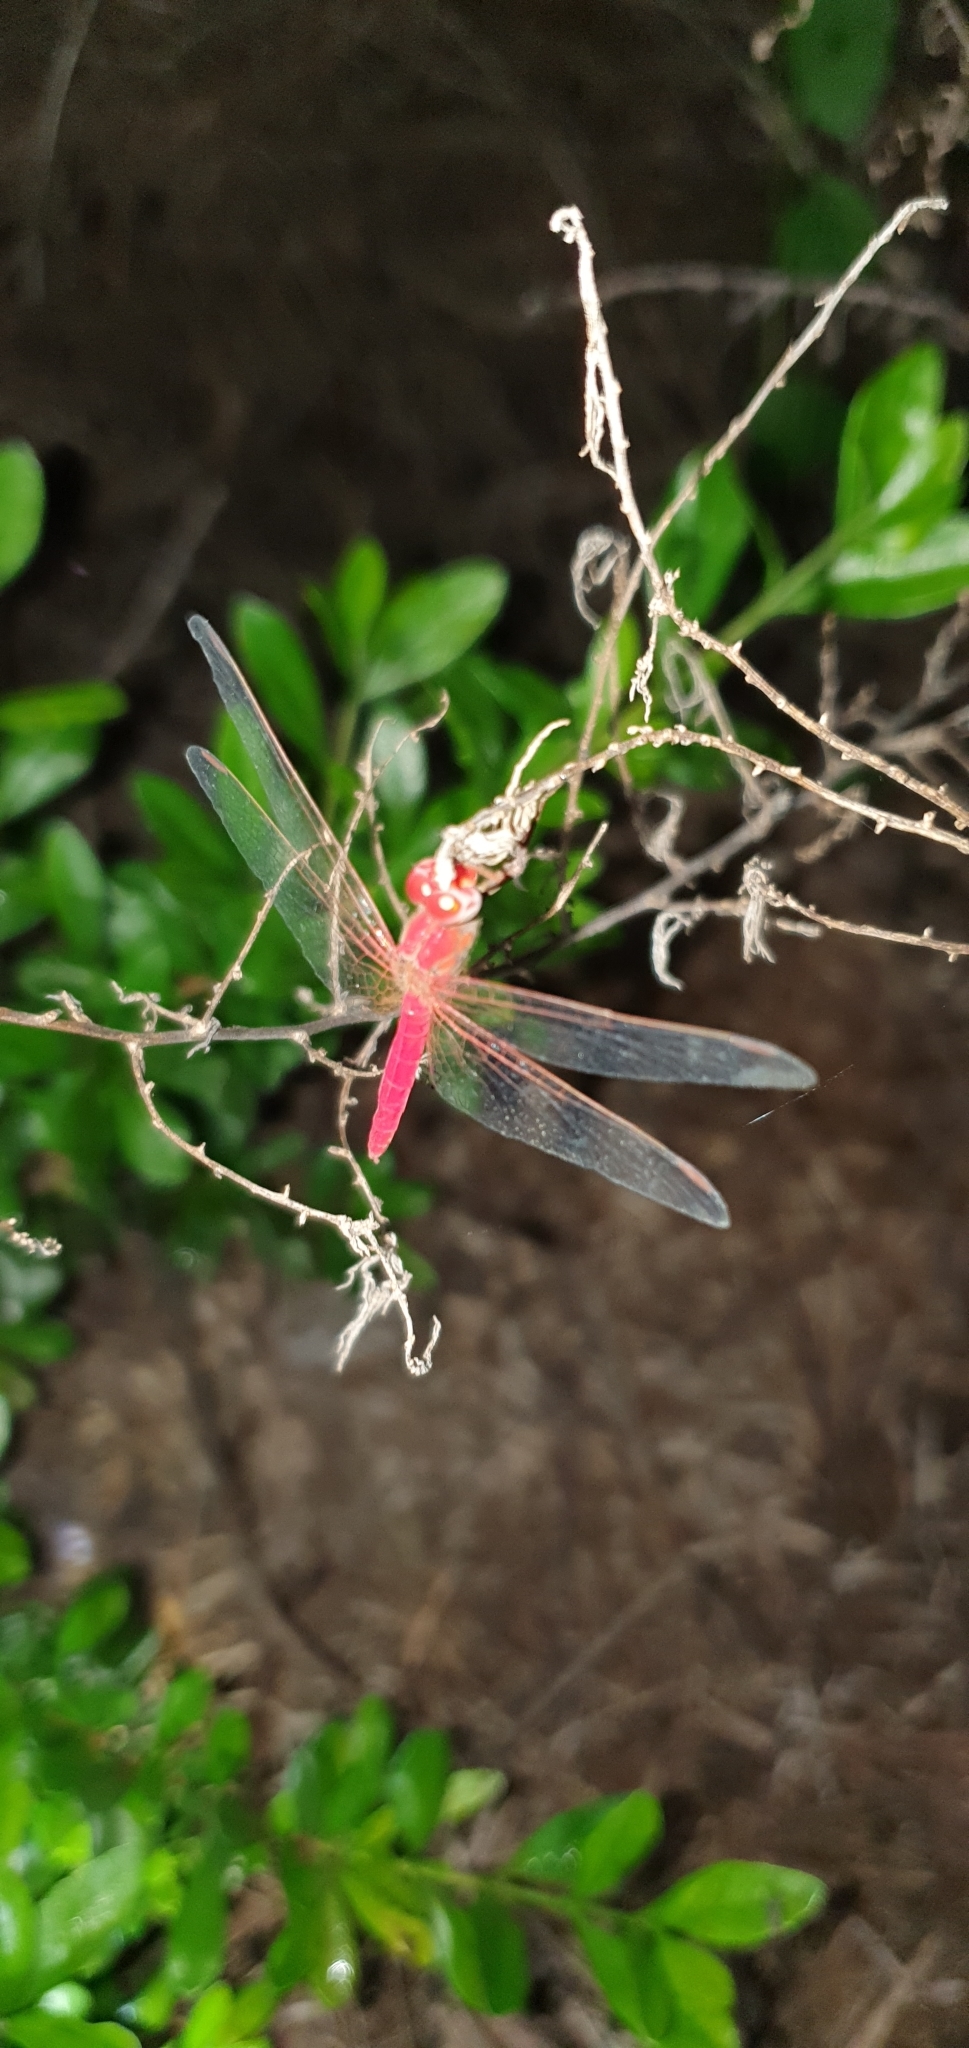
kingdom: Animalia
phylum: Arthropoda
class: Insecta
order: Odonata
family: Libellulidae
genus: Diplacodes
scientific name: Diplacodes haematodes
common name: Scarlet percher
